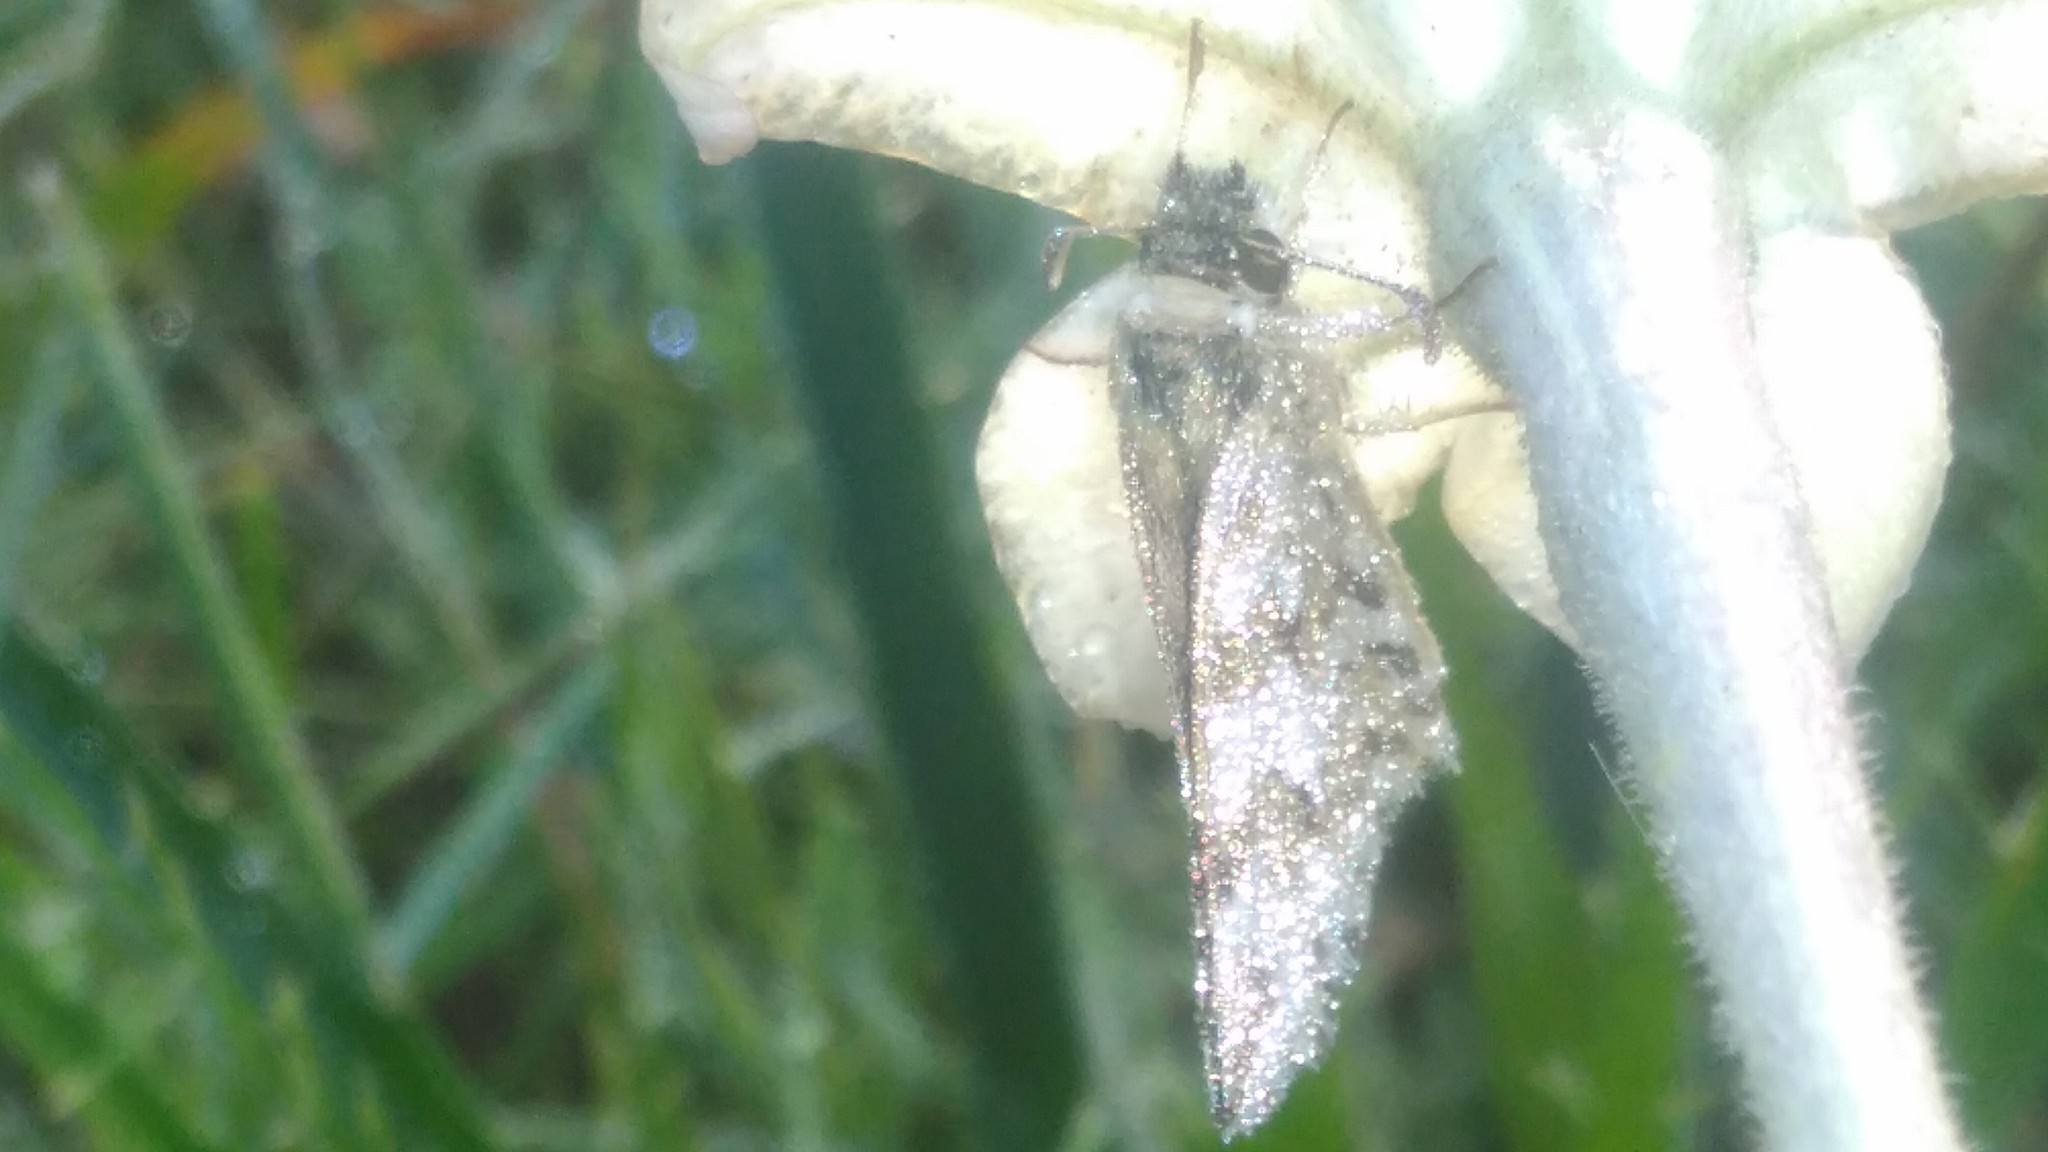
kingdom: Animalia
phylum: Arthropoda
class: Insecta
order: Lepidoptera
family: Hesperiidae
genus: Heliopetes
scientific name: Heliopetes americanus
